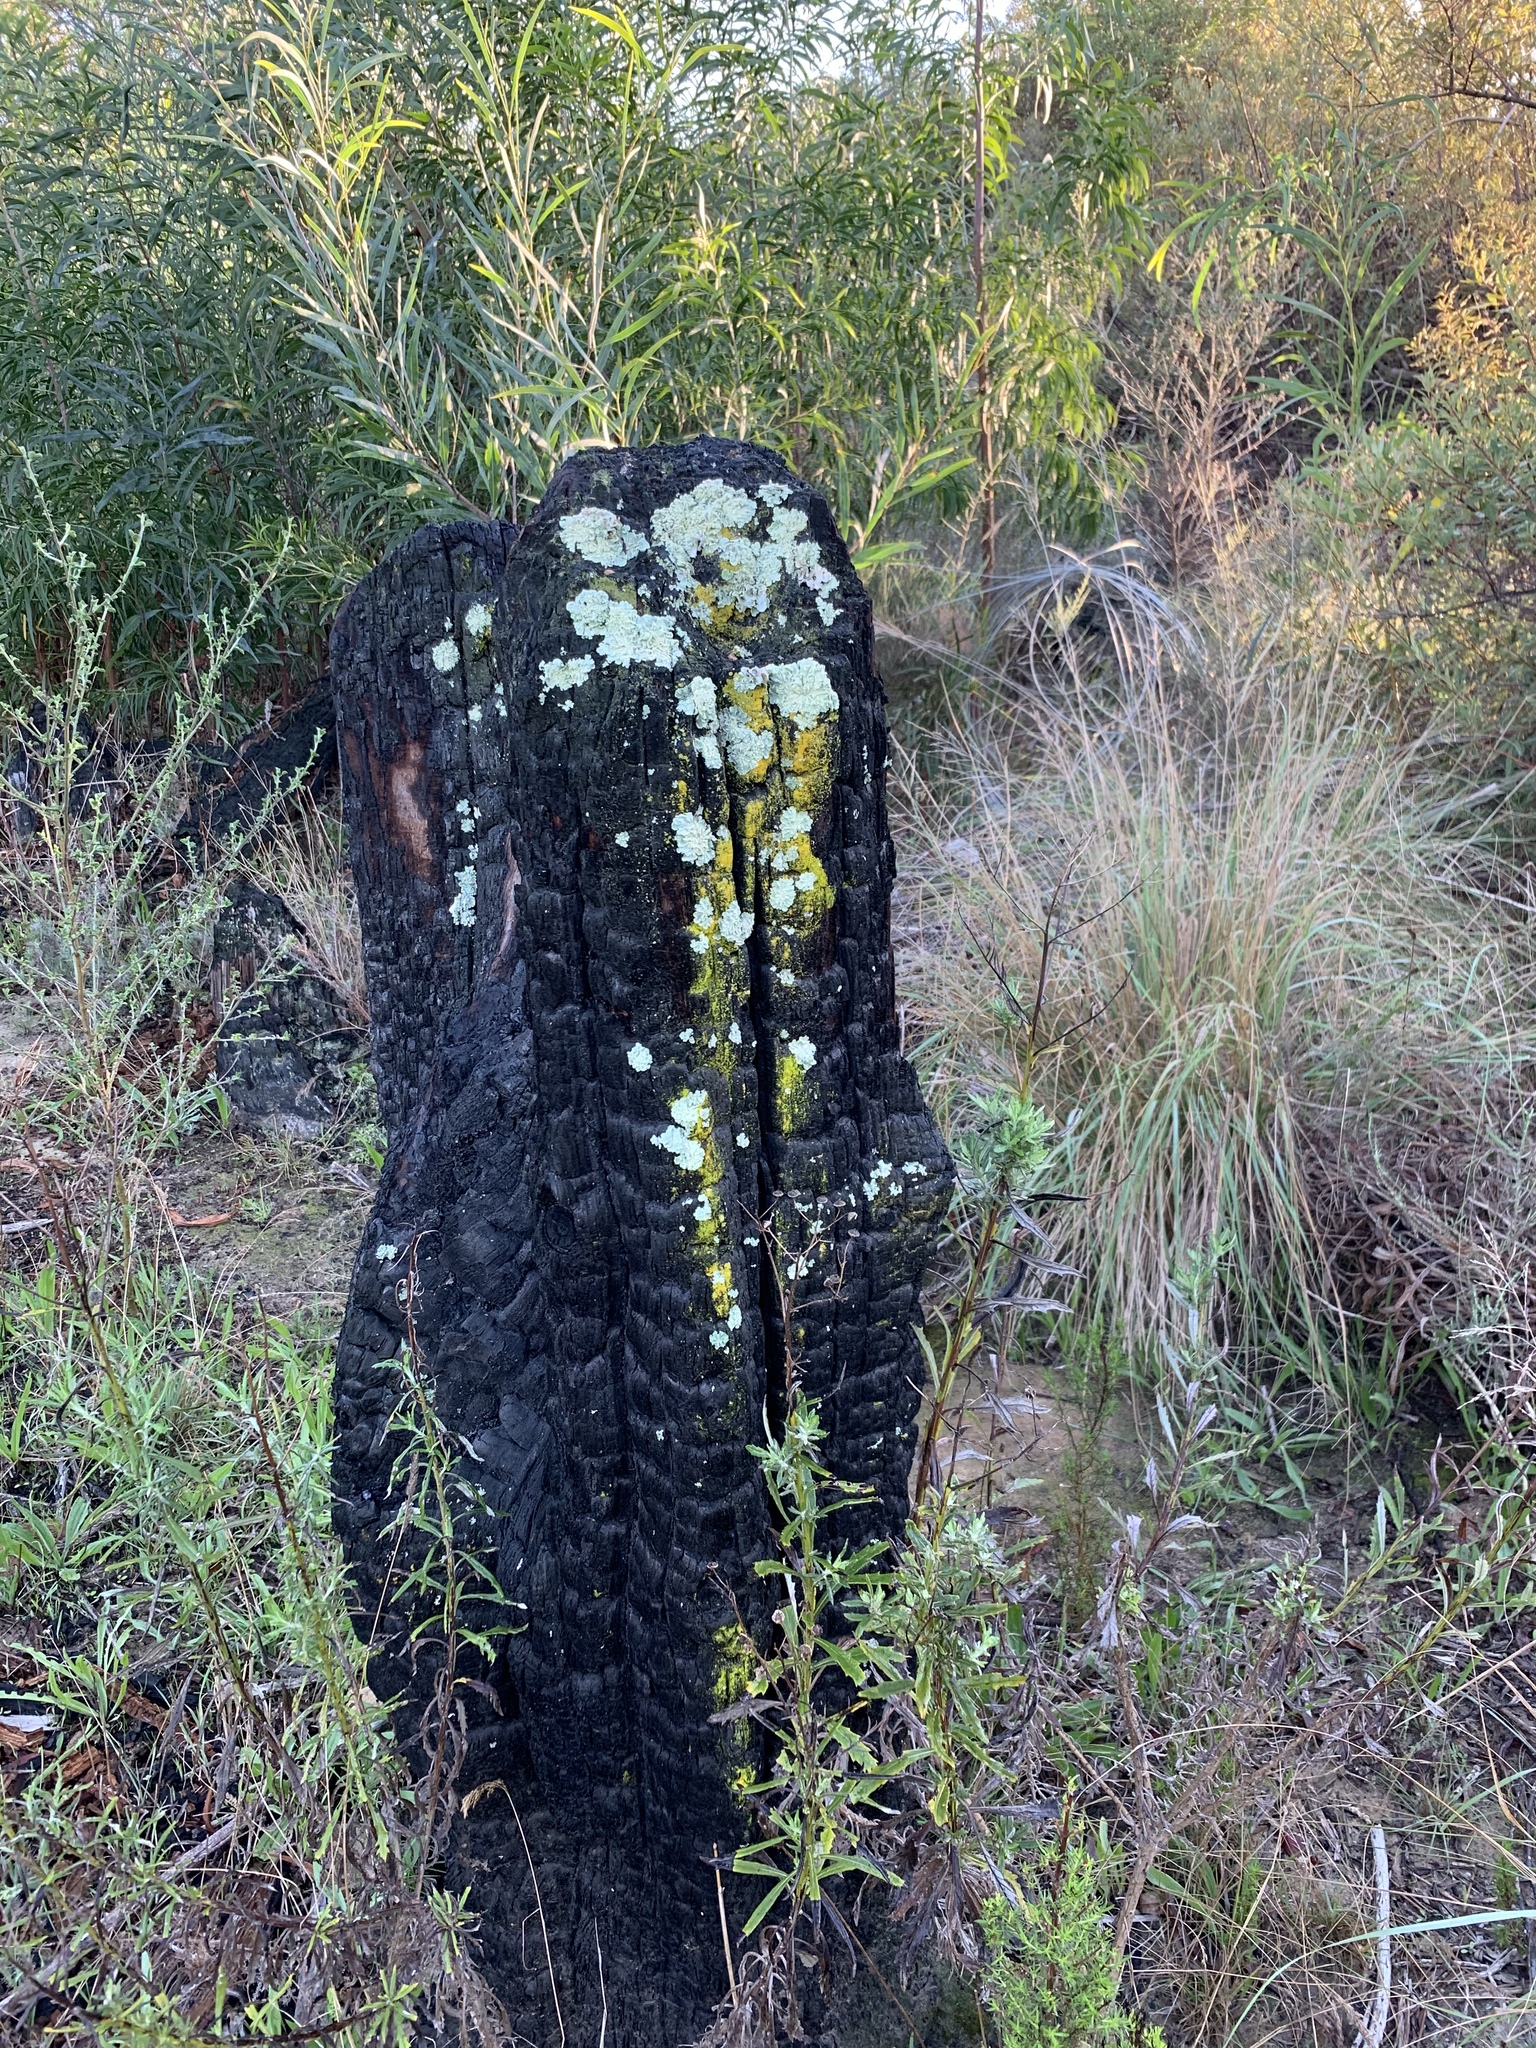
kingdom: Fungi
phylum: Ascomycota
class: Lecanoromycetes
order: Lecanorales
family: Parmeliaceae
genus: Flavoparmelia
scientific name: Flavoparmelia caperata
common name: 40-mile per hour lichen
